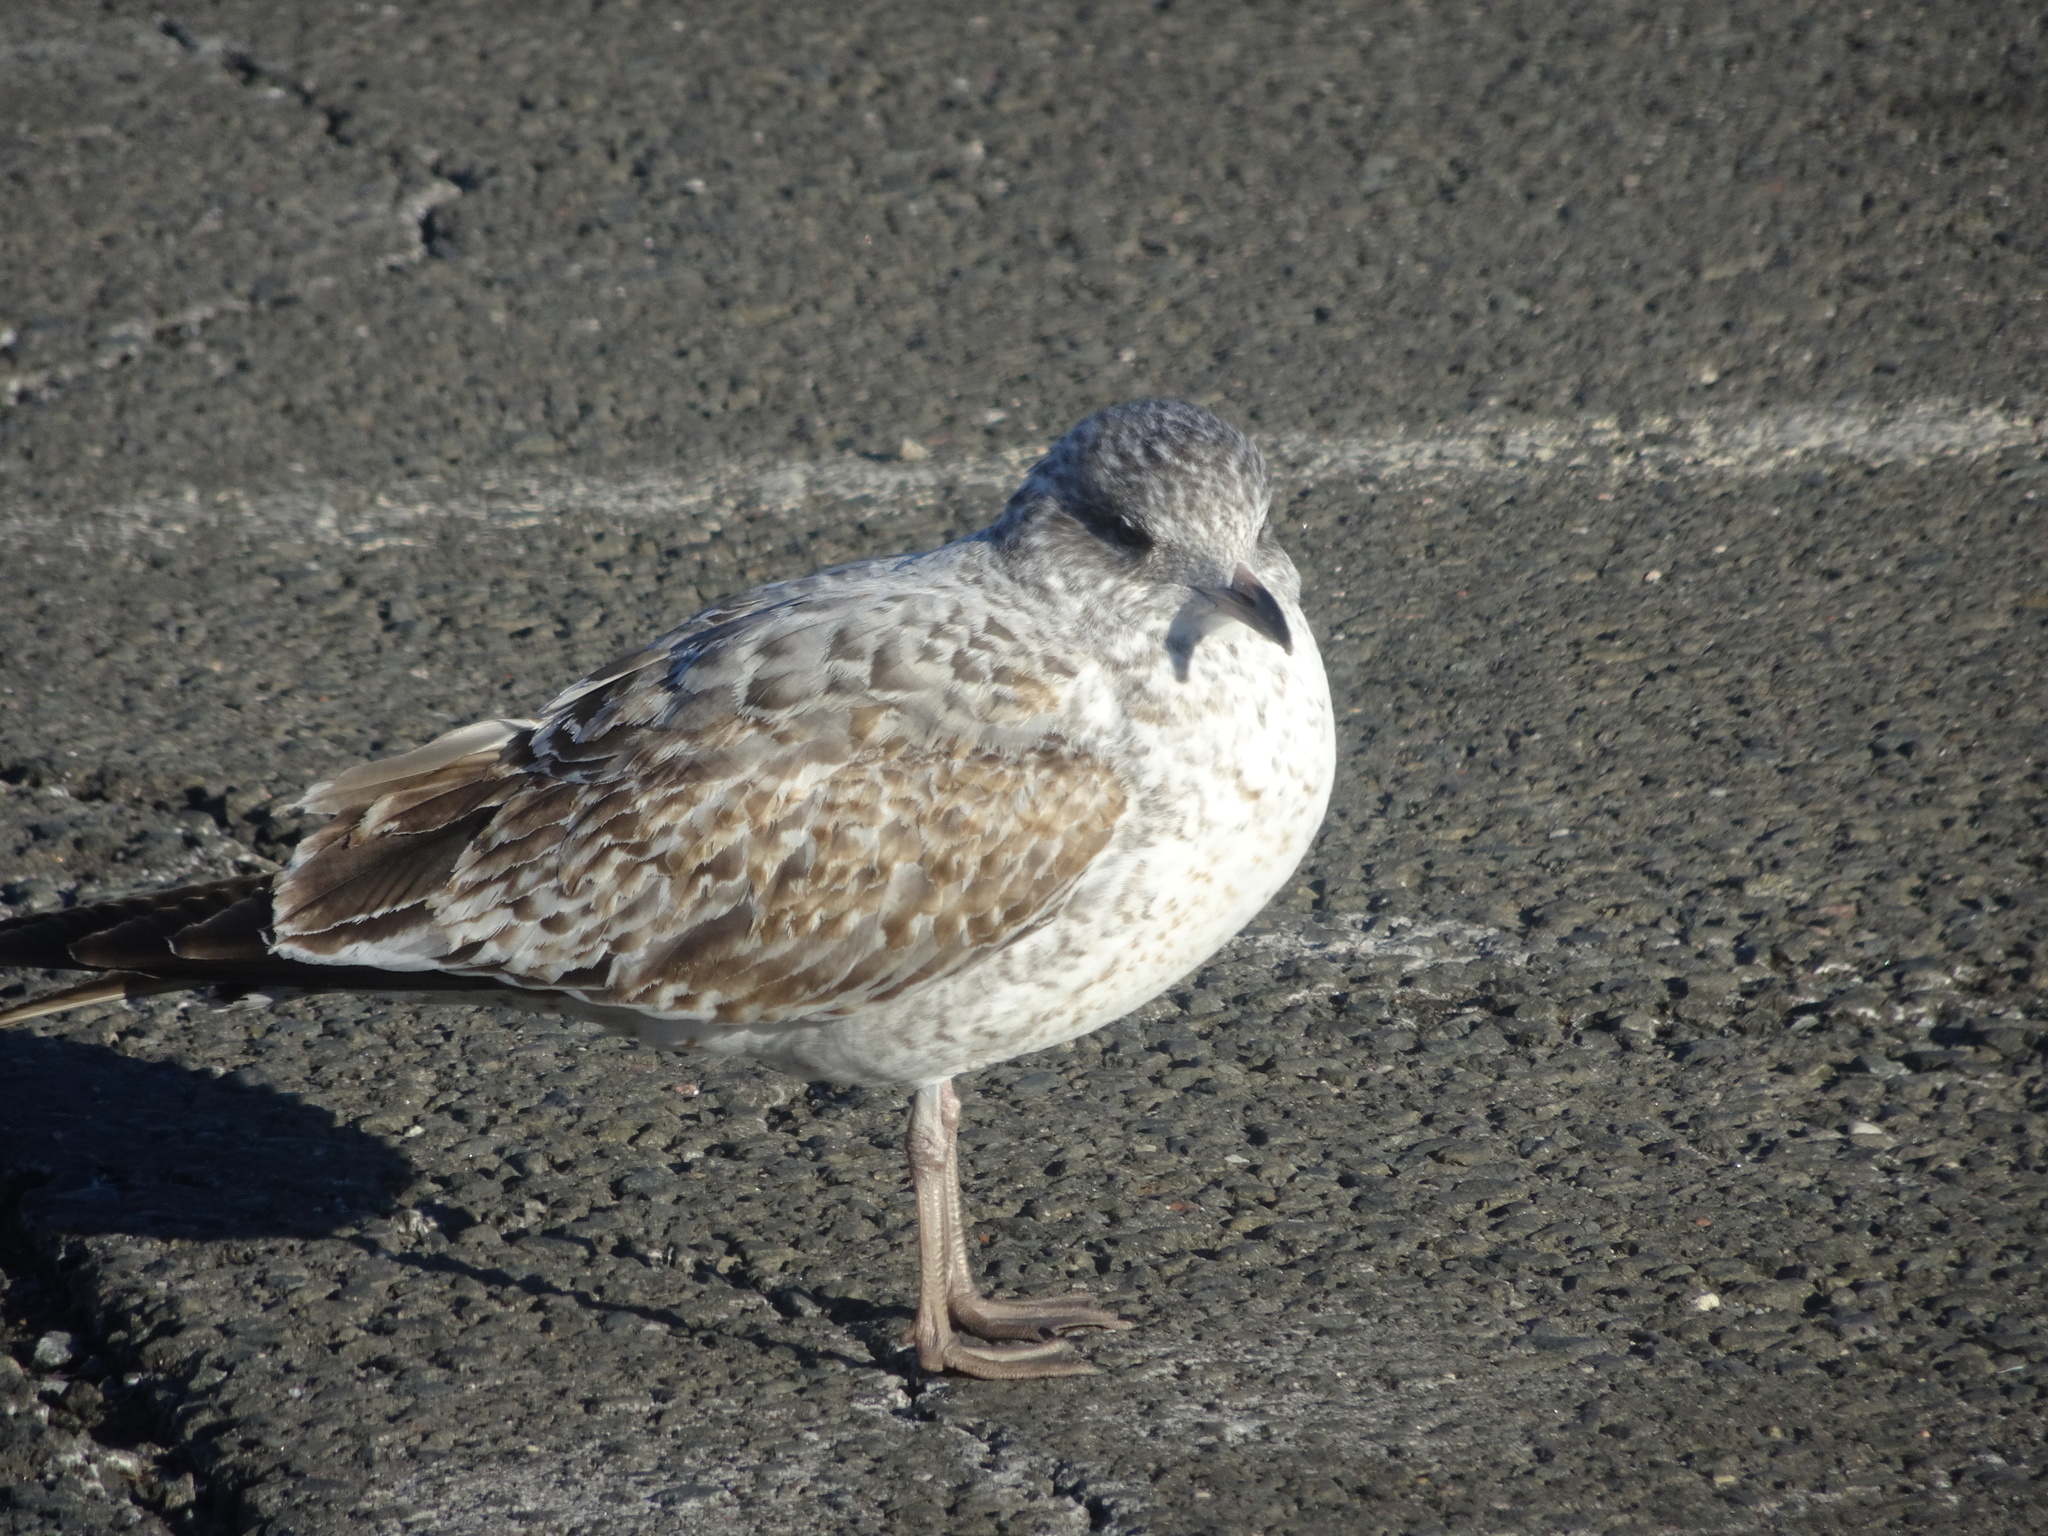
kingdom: Animalia
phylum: Chordata
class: Aves
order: Charadriiformes
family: Laridae
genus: Larus
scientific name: Larus delawarensis
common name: Ring-billed gull
